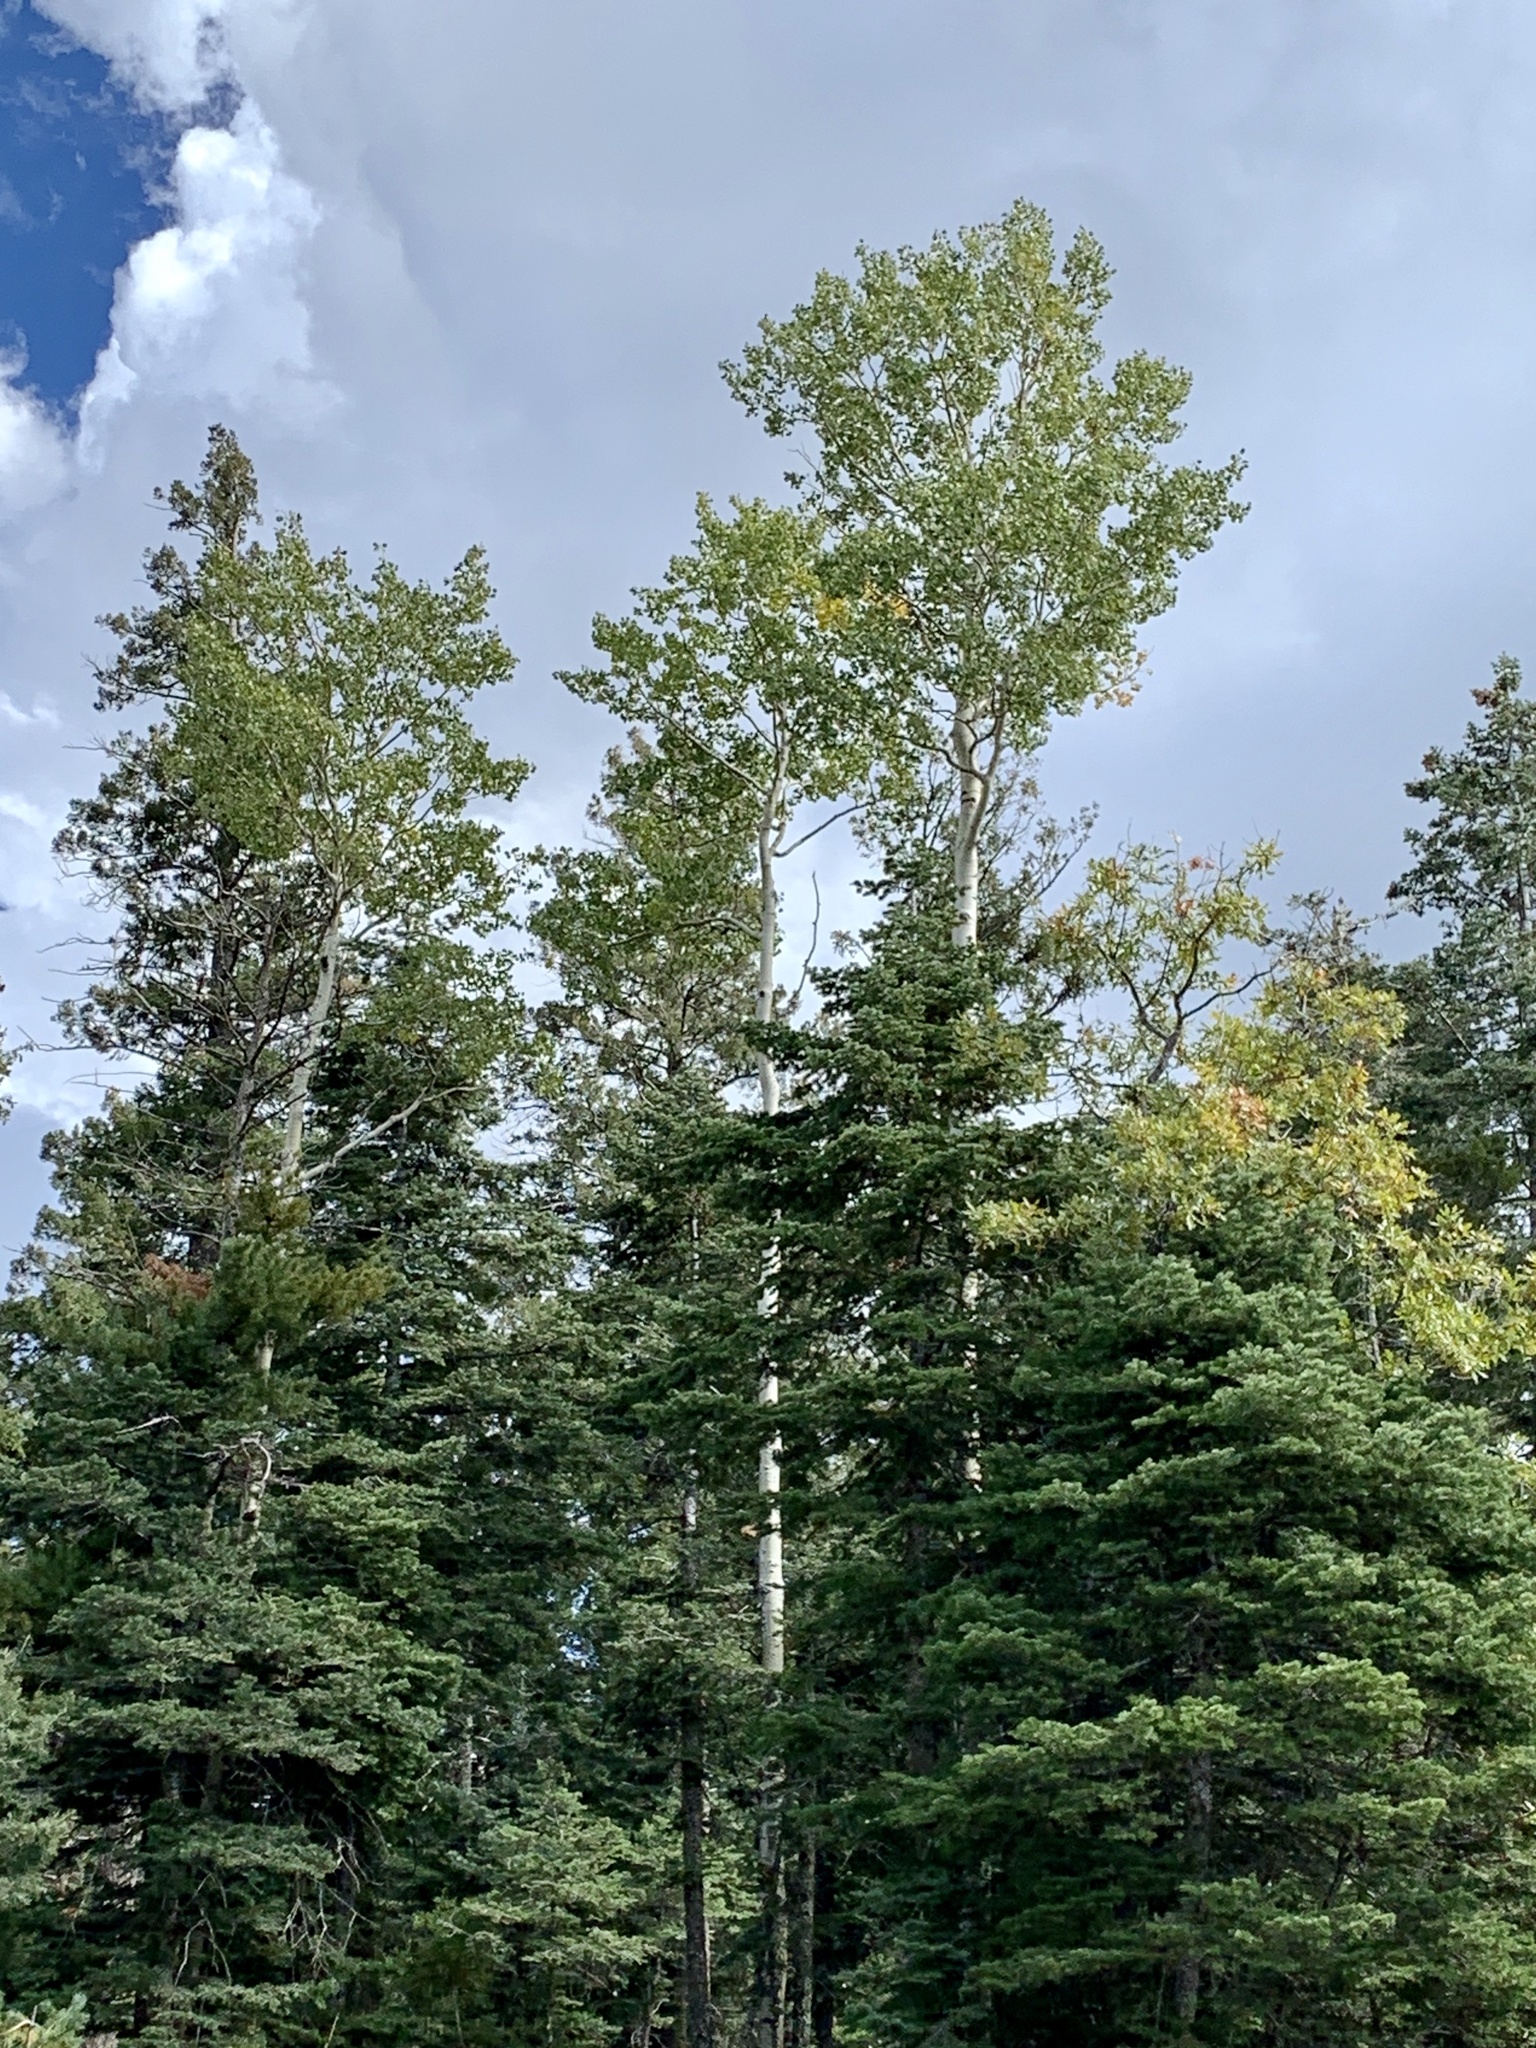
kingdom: Plantae
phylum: Tracheophyta
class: Magnoliopsida
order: Malpighiales
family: Salicaceae
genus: Populus
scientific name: Populus tremuloides
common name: Quaking aspen
